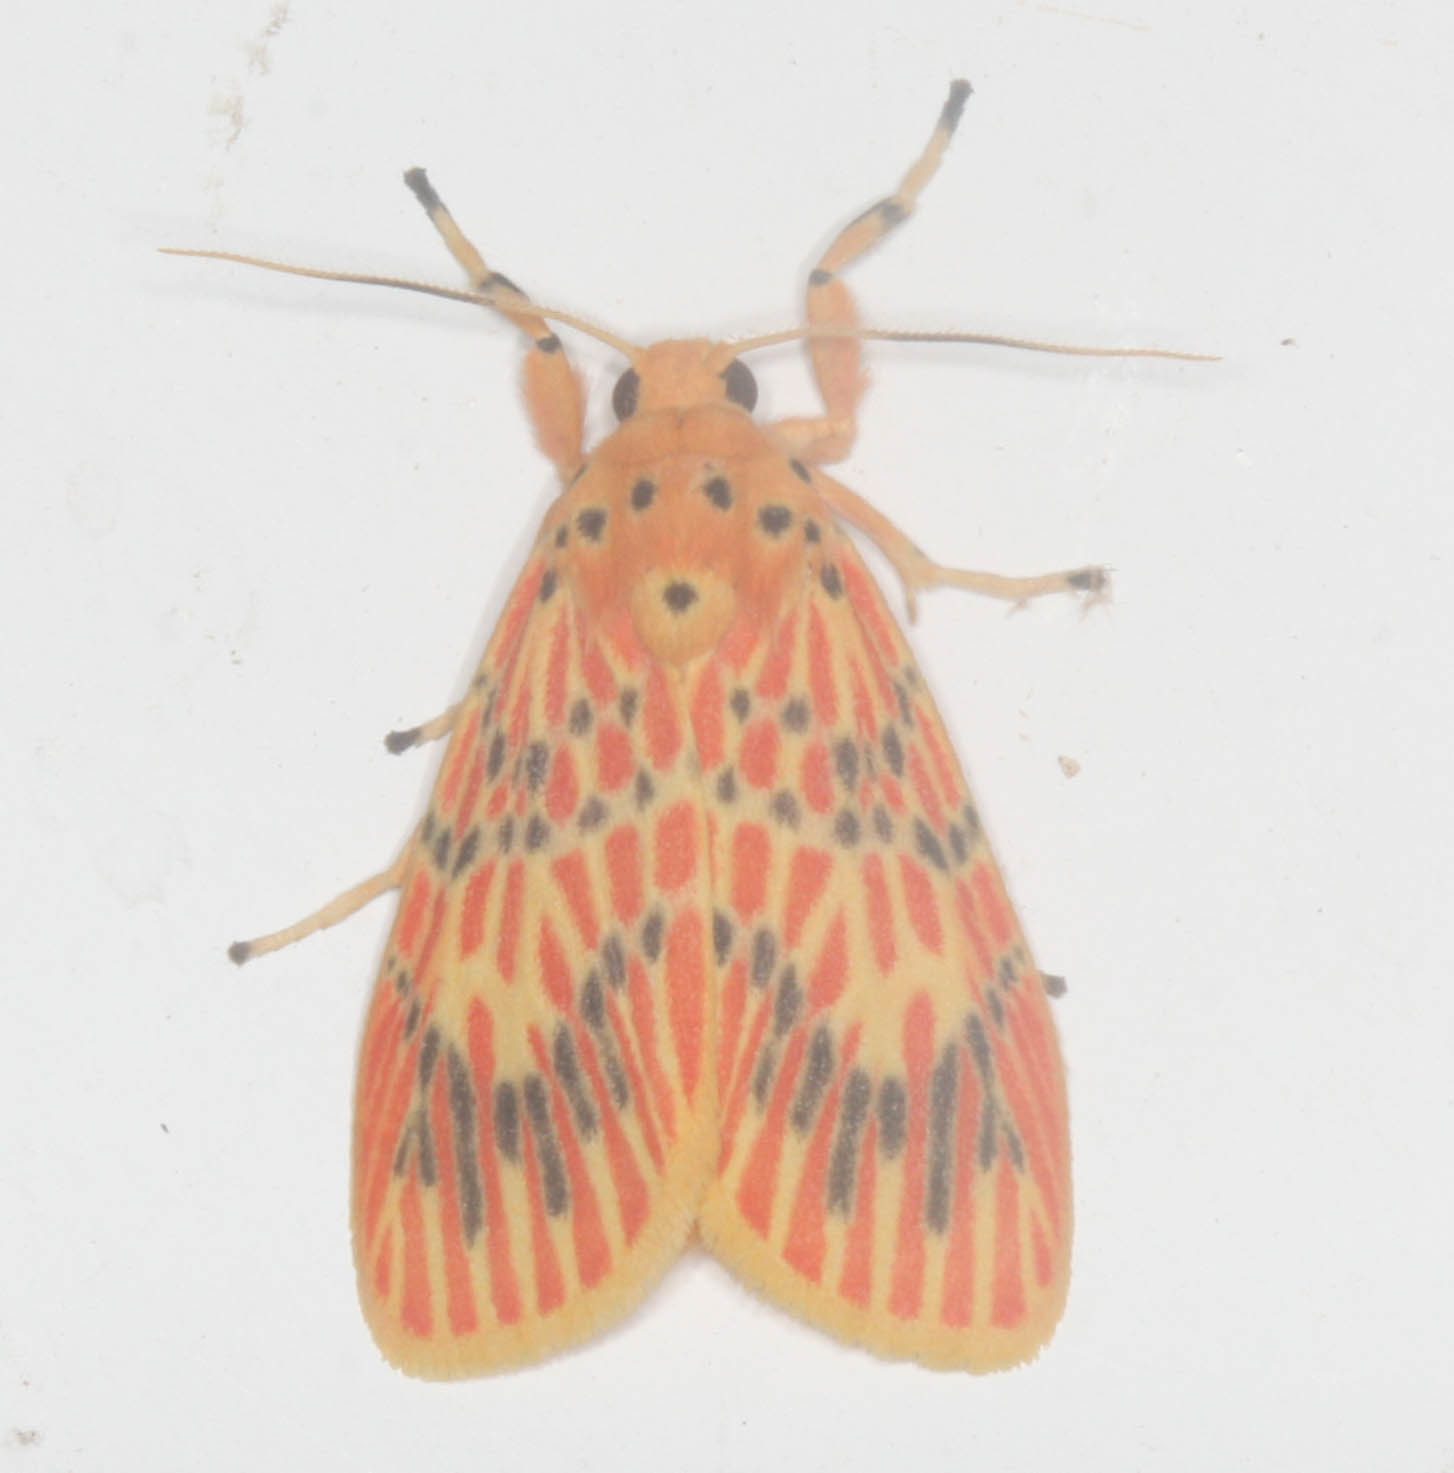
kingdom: Animalia
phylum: Arthropoda
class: Insecta
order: Lepidoptera
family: Erebidae
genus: Barsine
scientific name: Barsine striata
